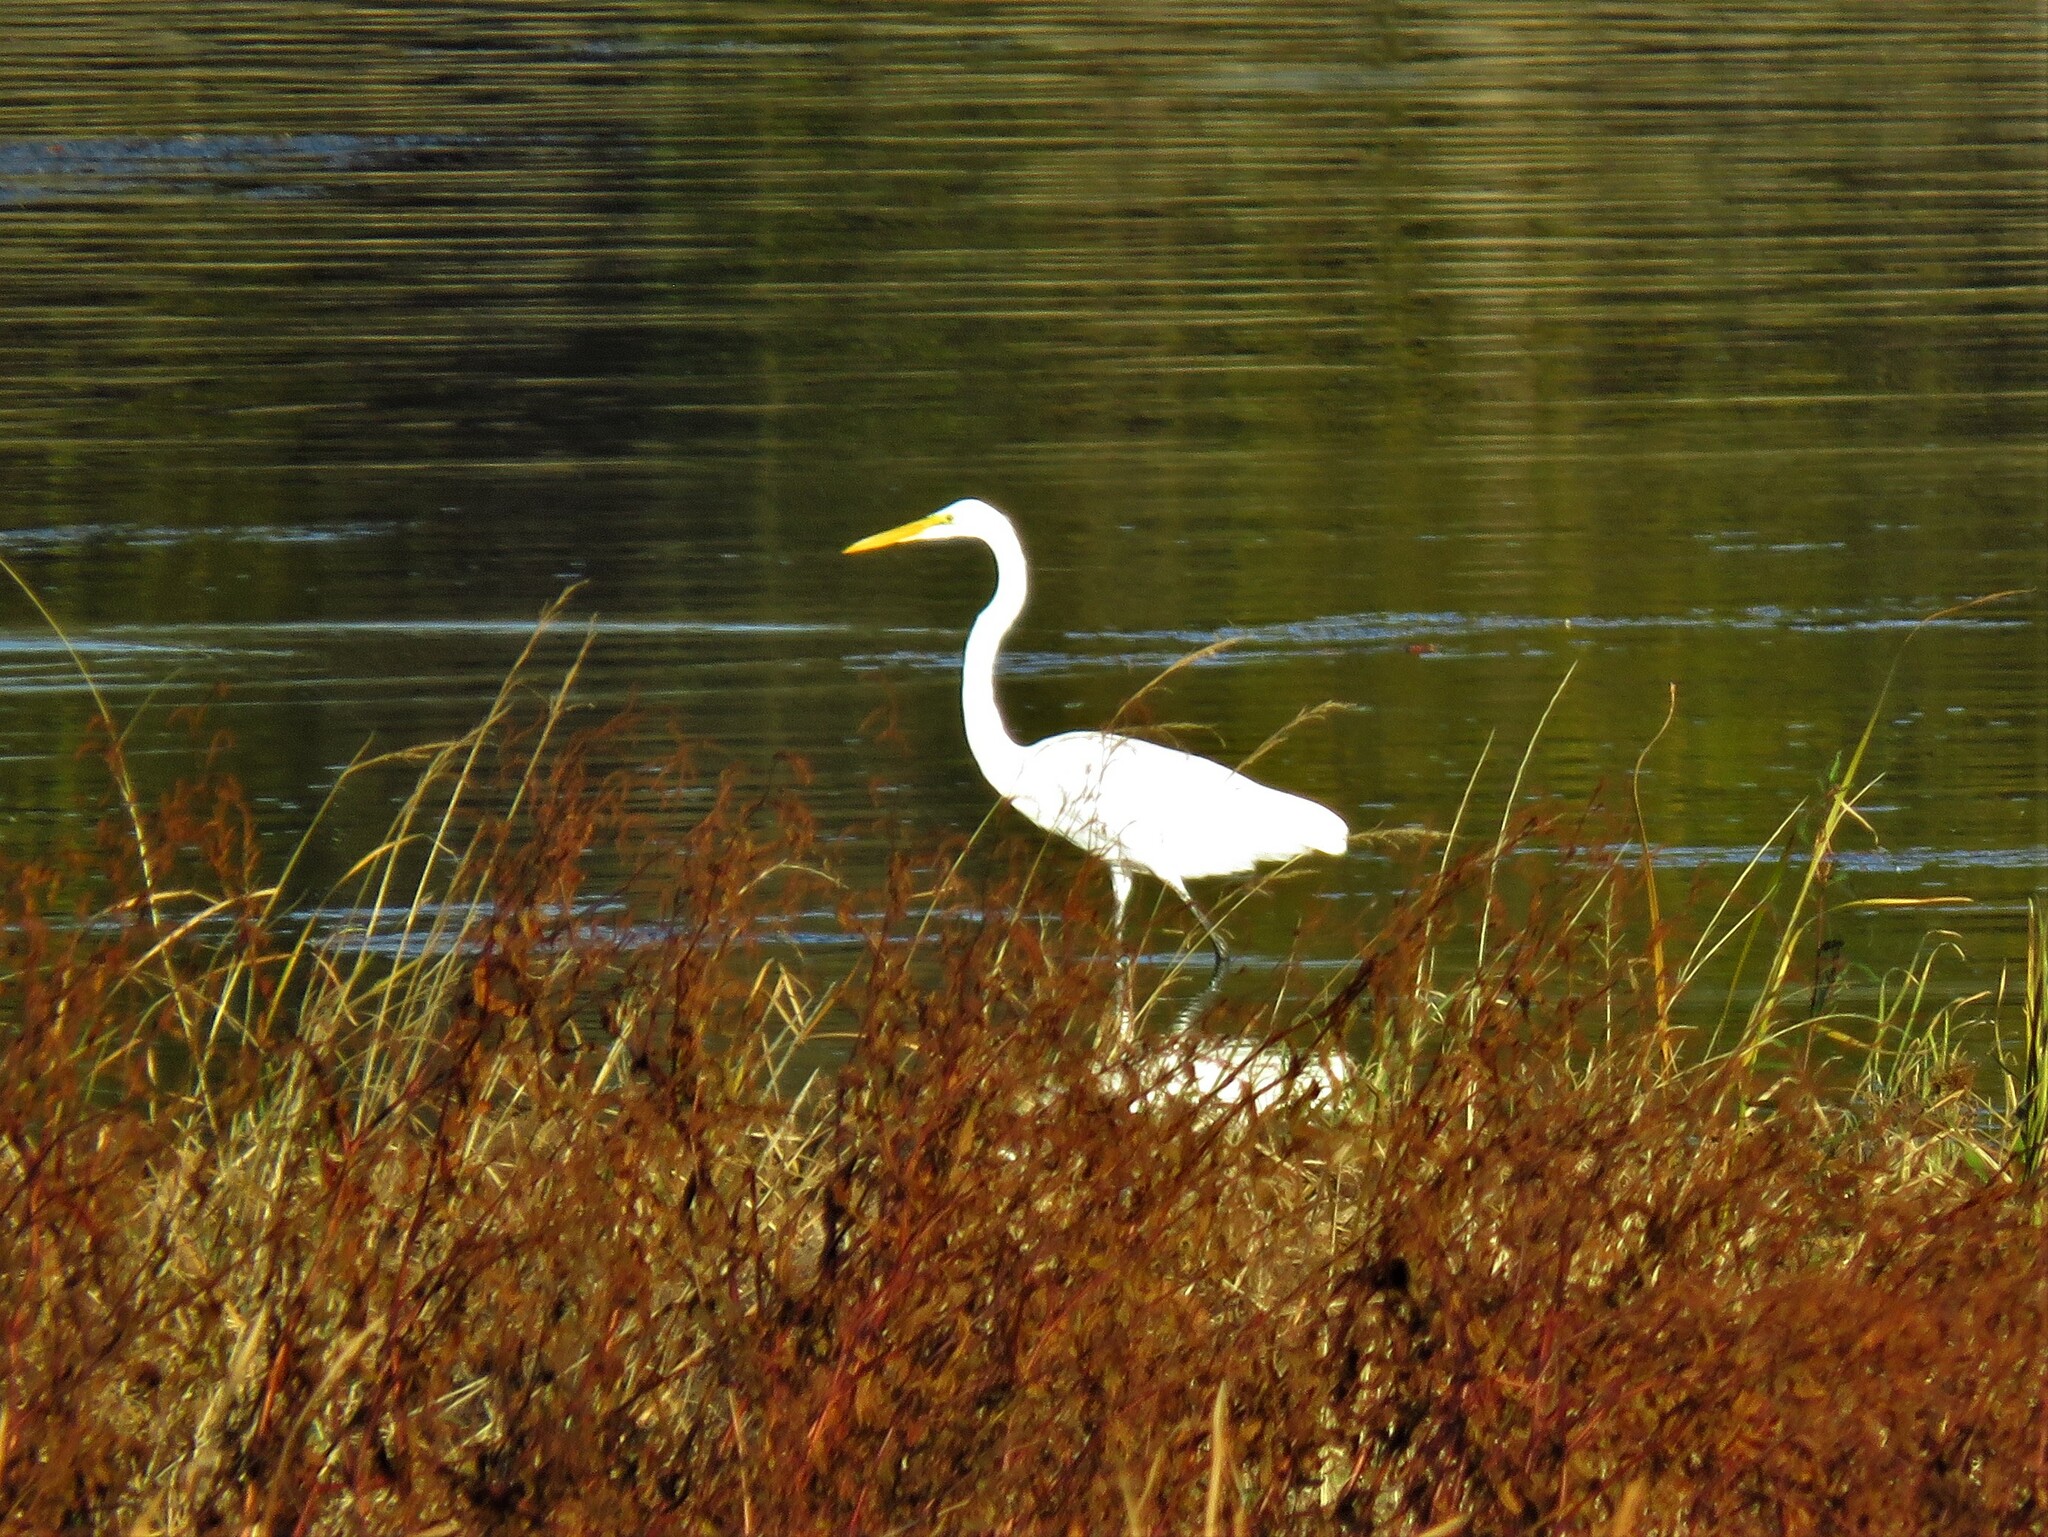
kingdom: Animalia
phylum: Chordata
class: Aves
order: Pelecaniformes
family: Ardeidae
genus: Ardea
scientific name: Ardea alba
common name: Great egret
